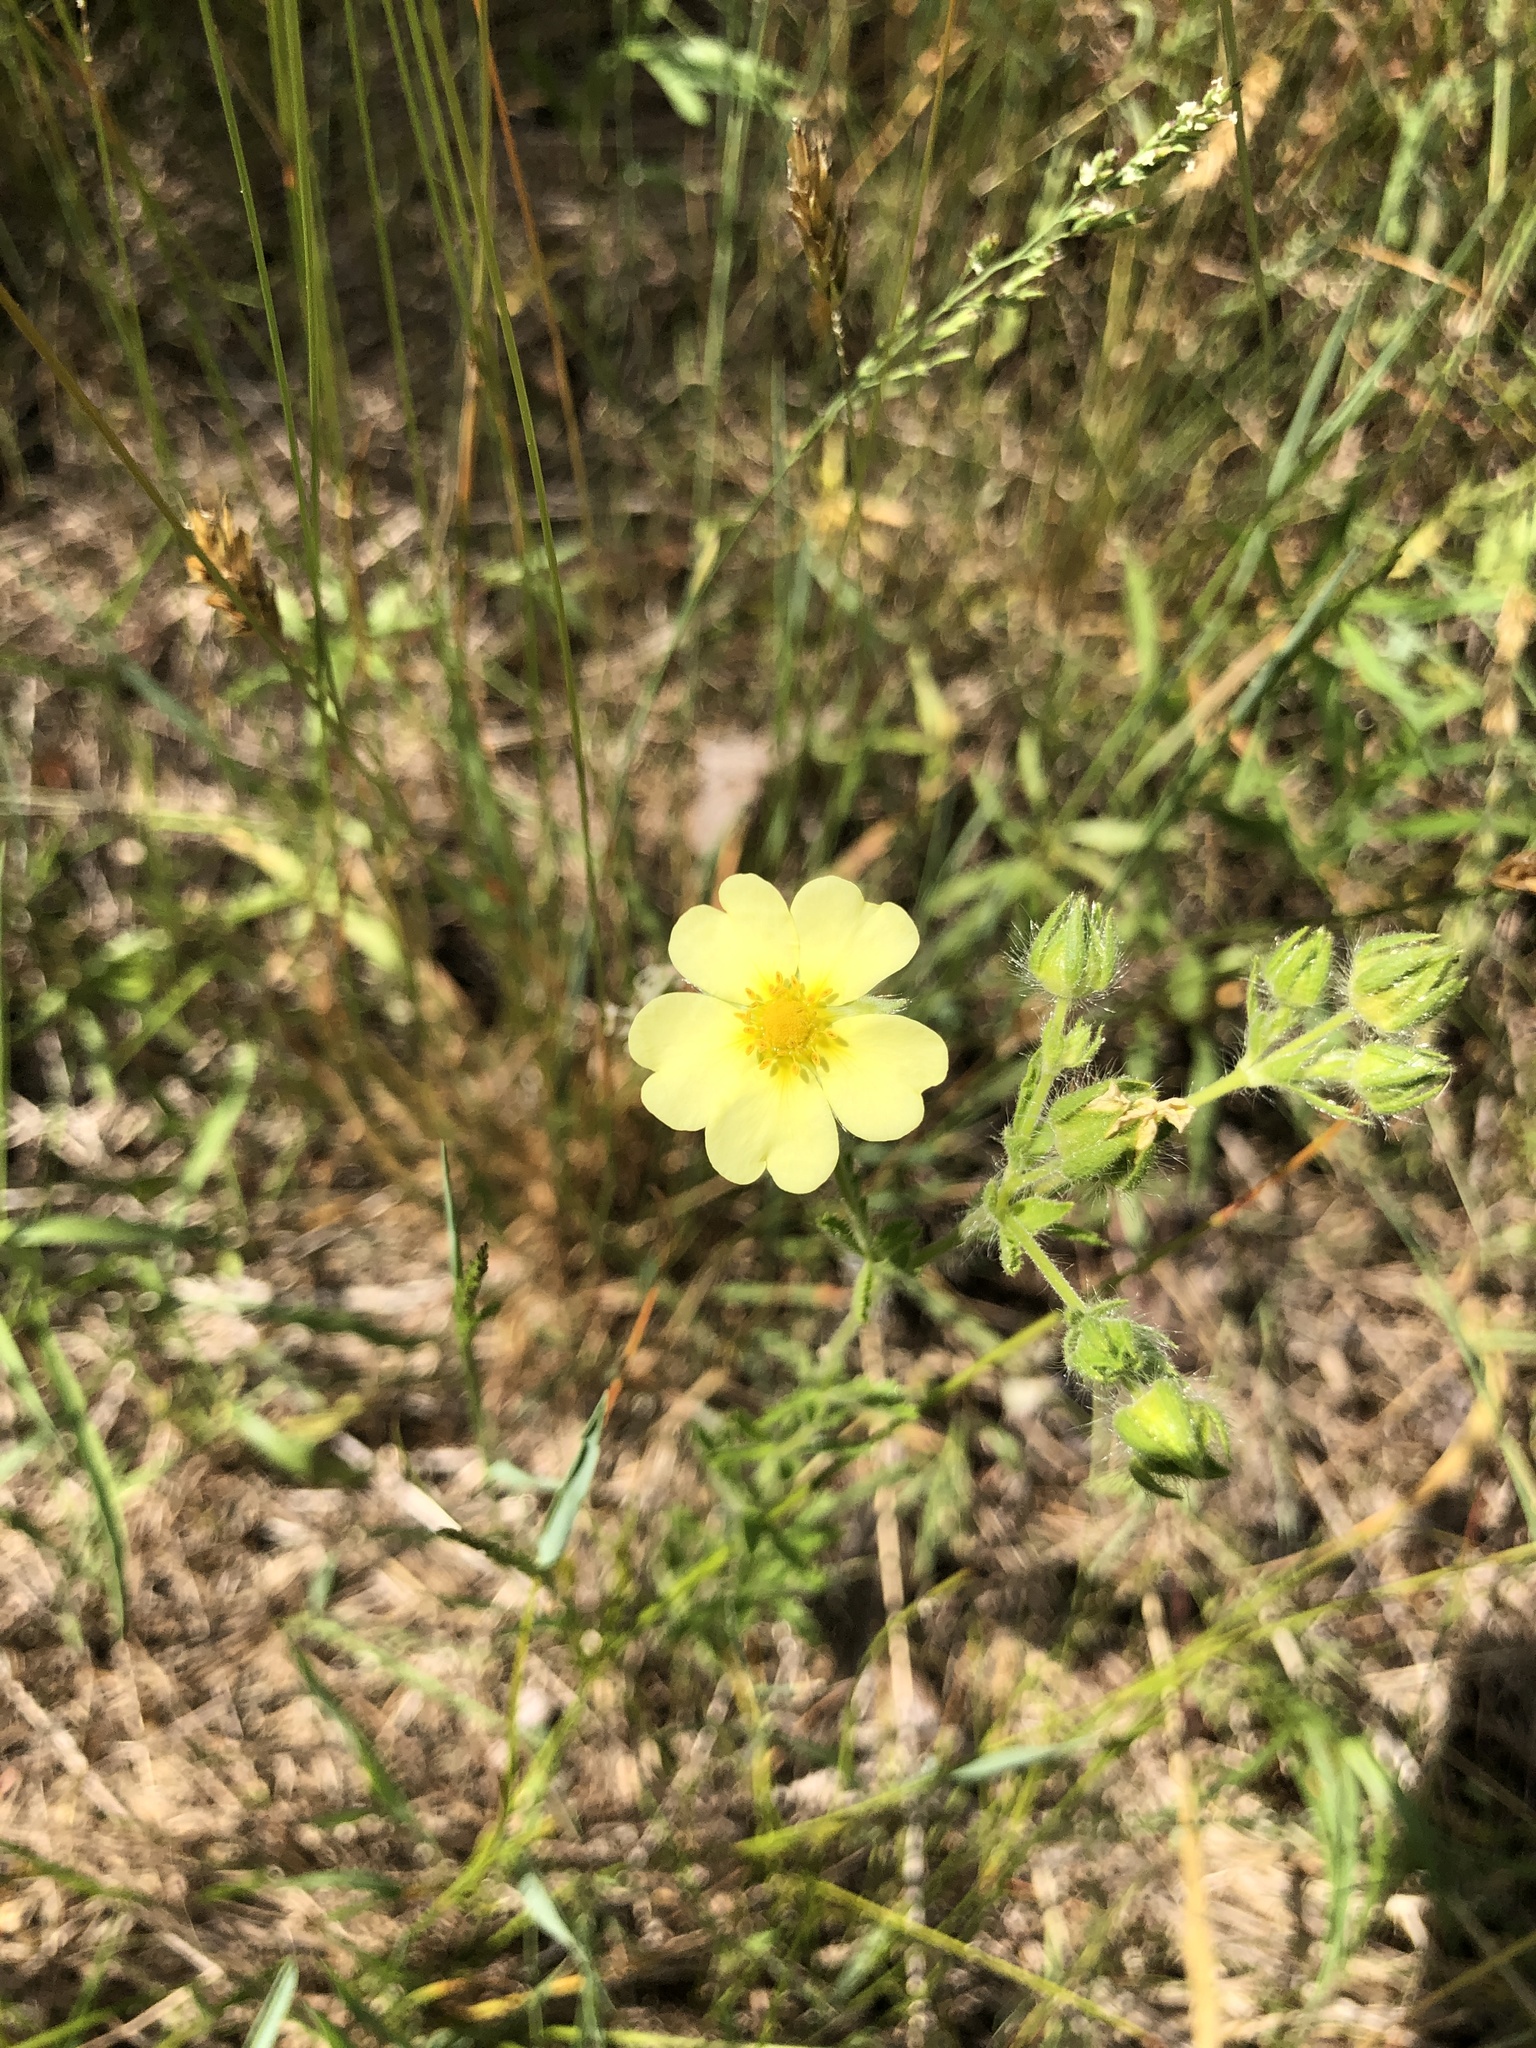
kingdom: Plantae
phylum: Tracheophyta
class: Magnoliopsida
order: Rosales
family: Rosaceae
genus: Potentilla
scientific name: Potentilla recta
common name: Sulphur cinquefoil
